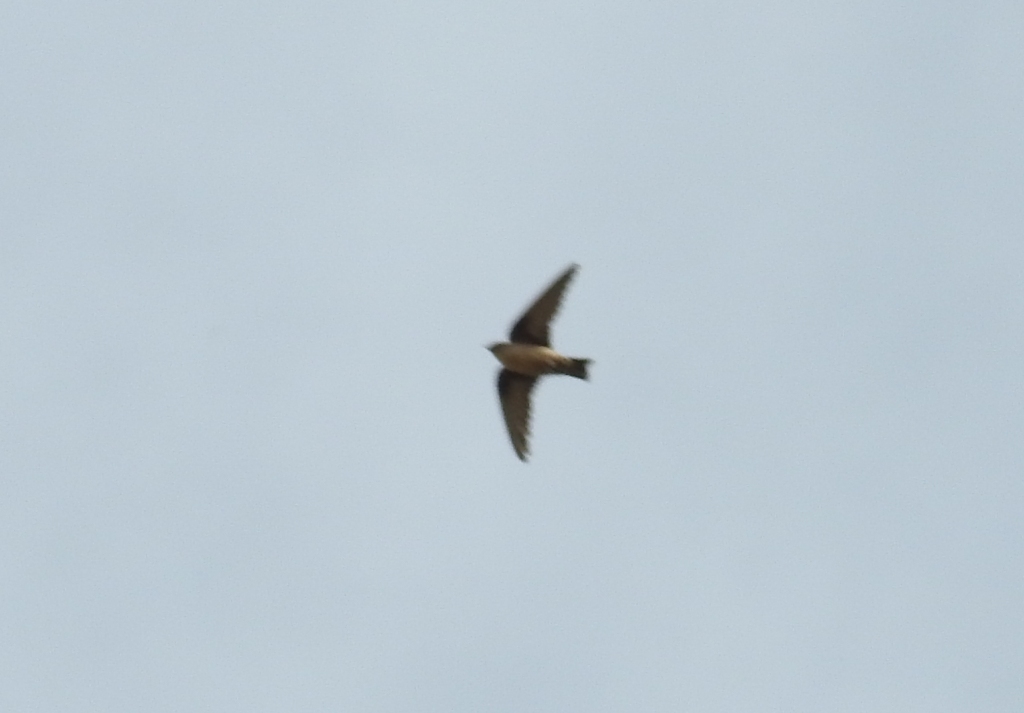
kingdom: Animalia
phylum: Chordata
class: Aves
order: Passeriformes
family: Hirundinidae
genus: Ptyonoprogne
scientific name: Ptyonoprogne rupestris
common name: Eurasian crag martin
